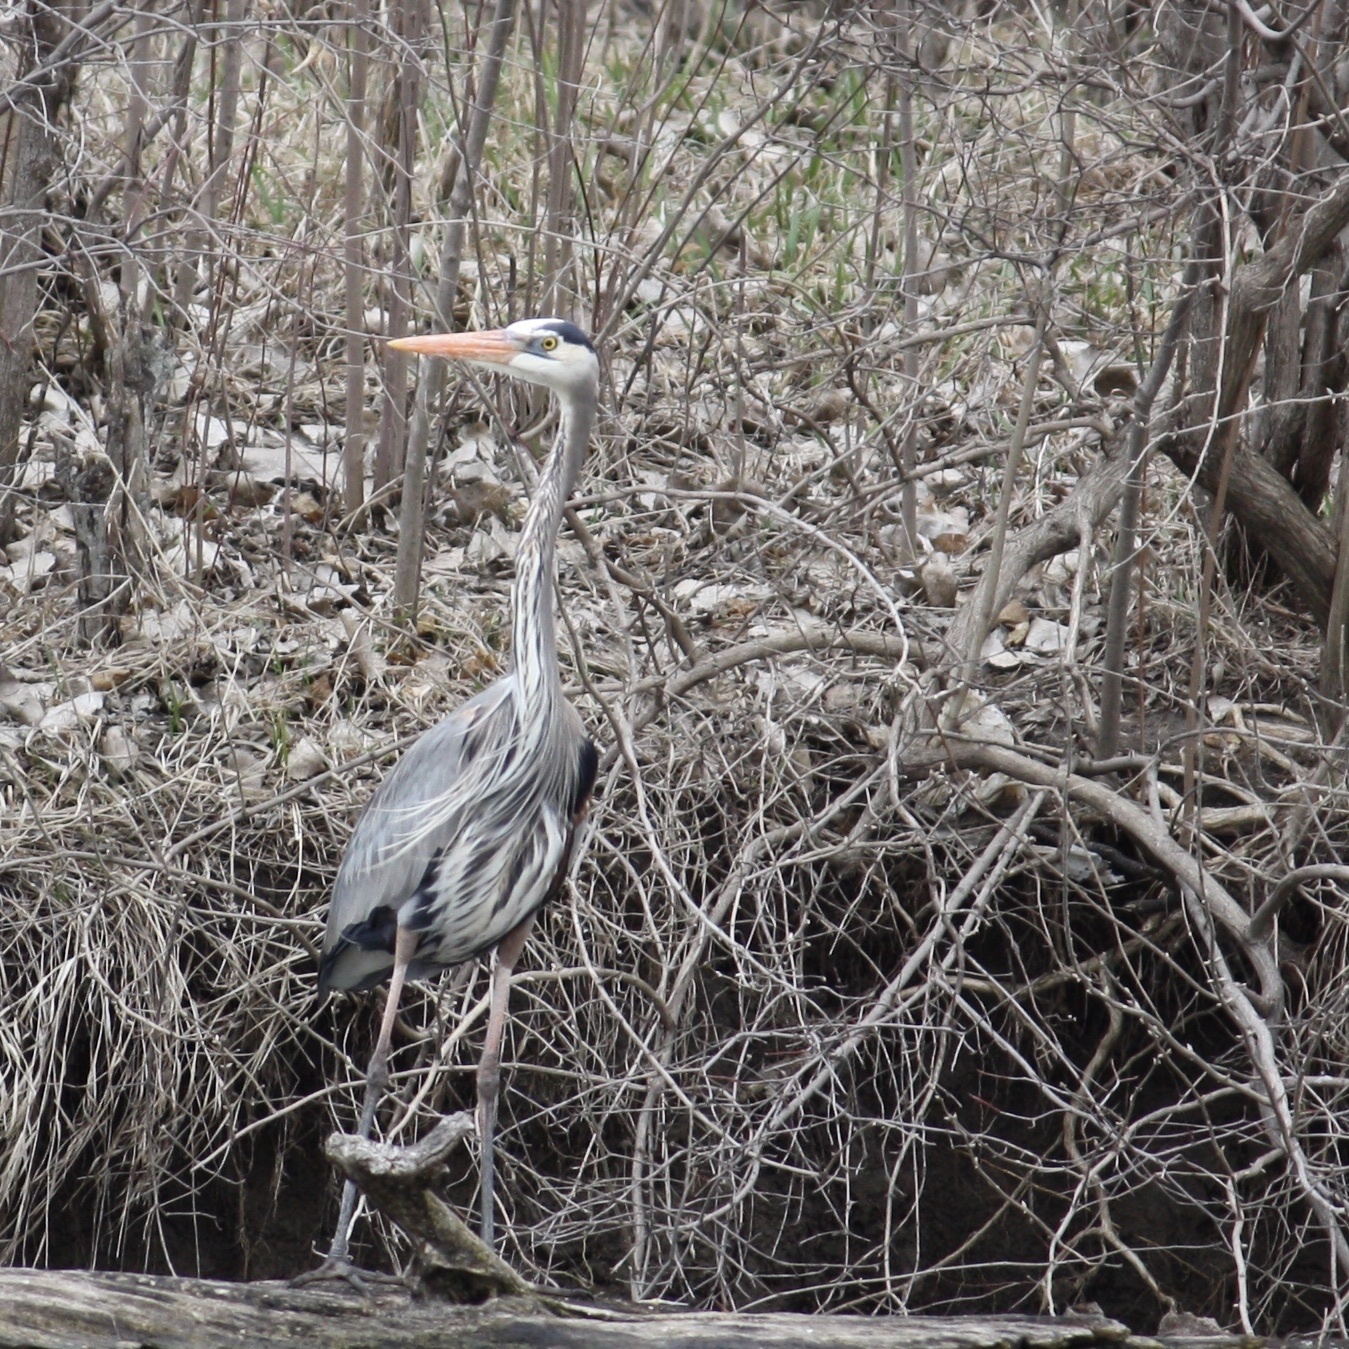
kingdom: Animalia
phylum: Chordata
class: Aves
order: Pelecaniformes
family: Ardeidae
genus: Ardea
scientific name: Ardea herodias
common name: Great blue heron
